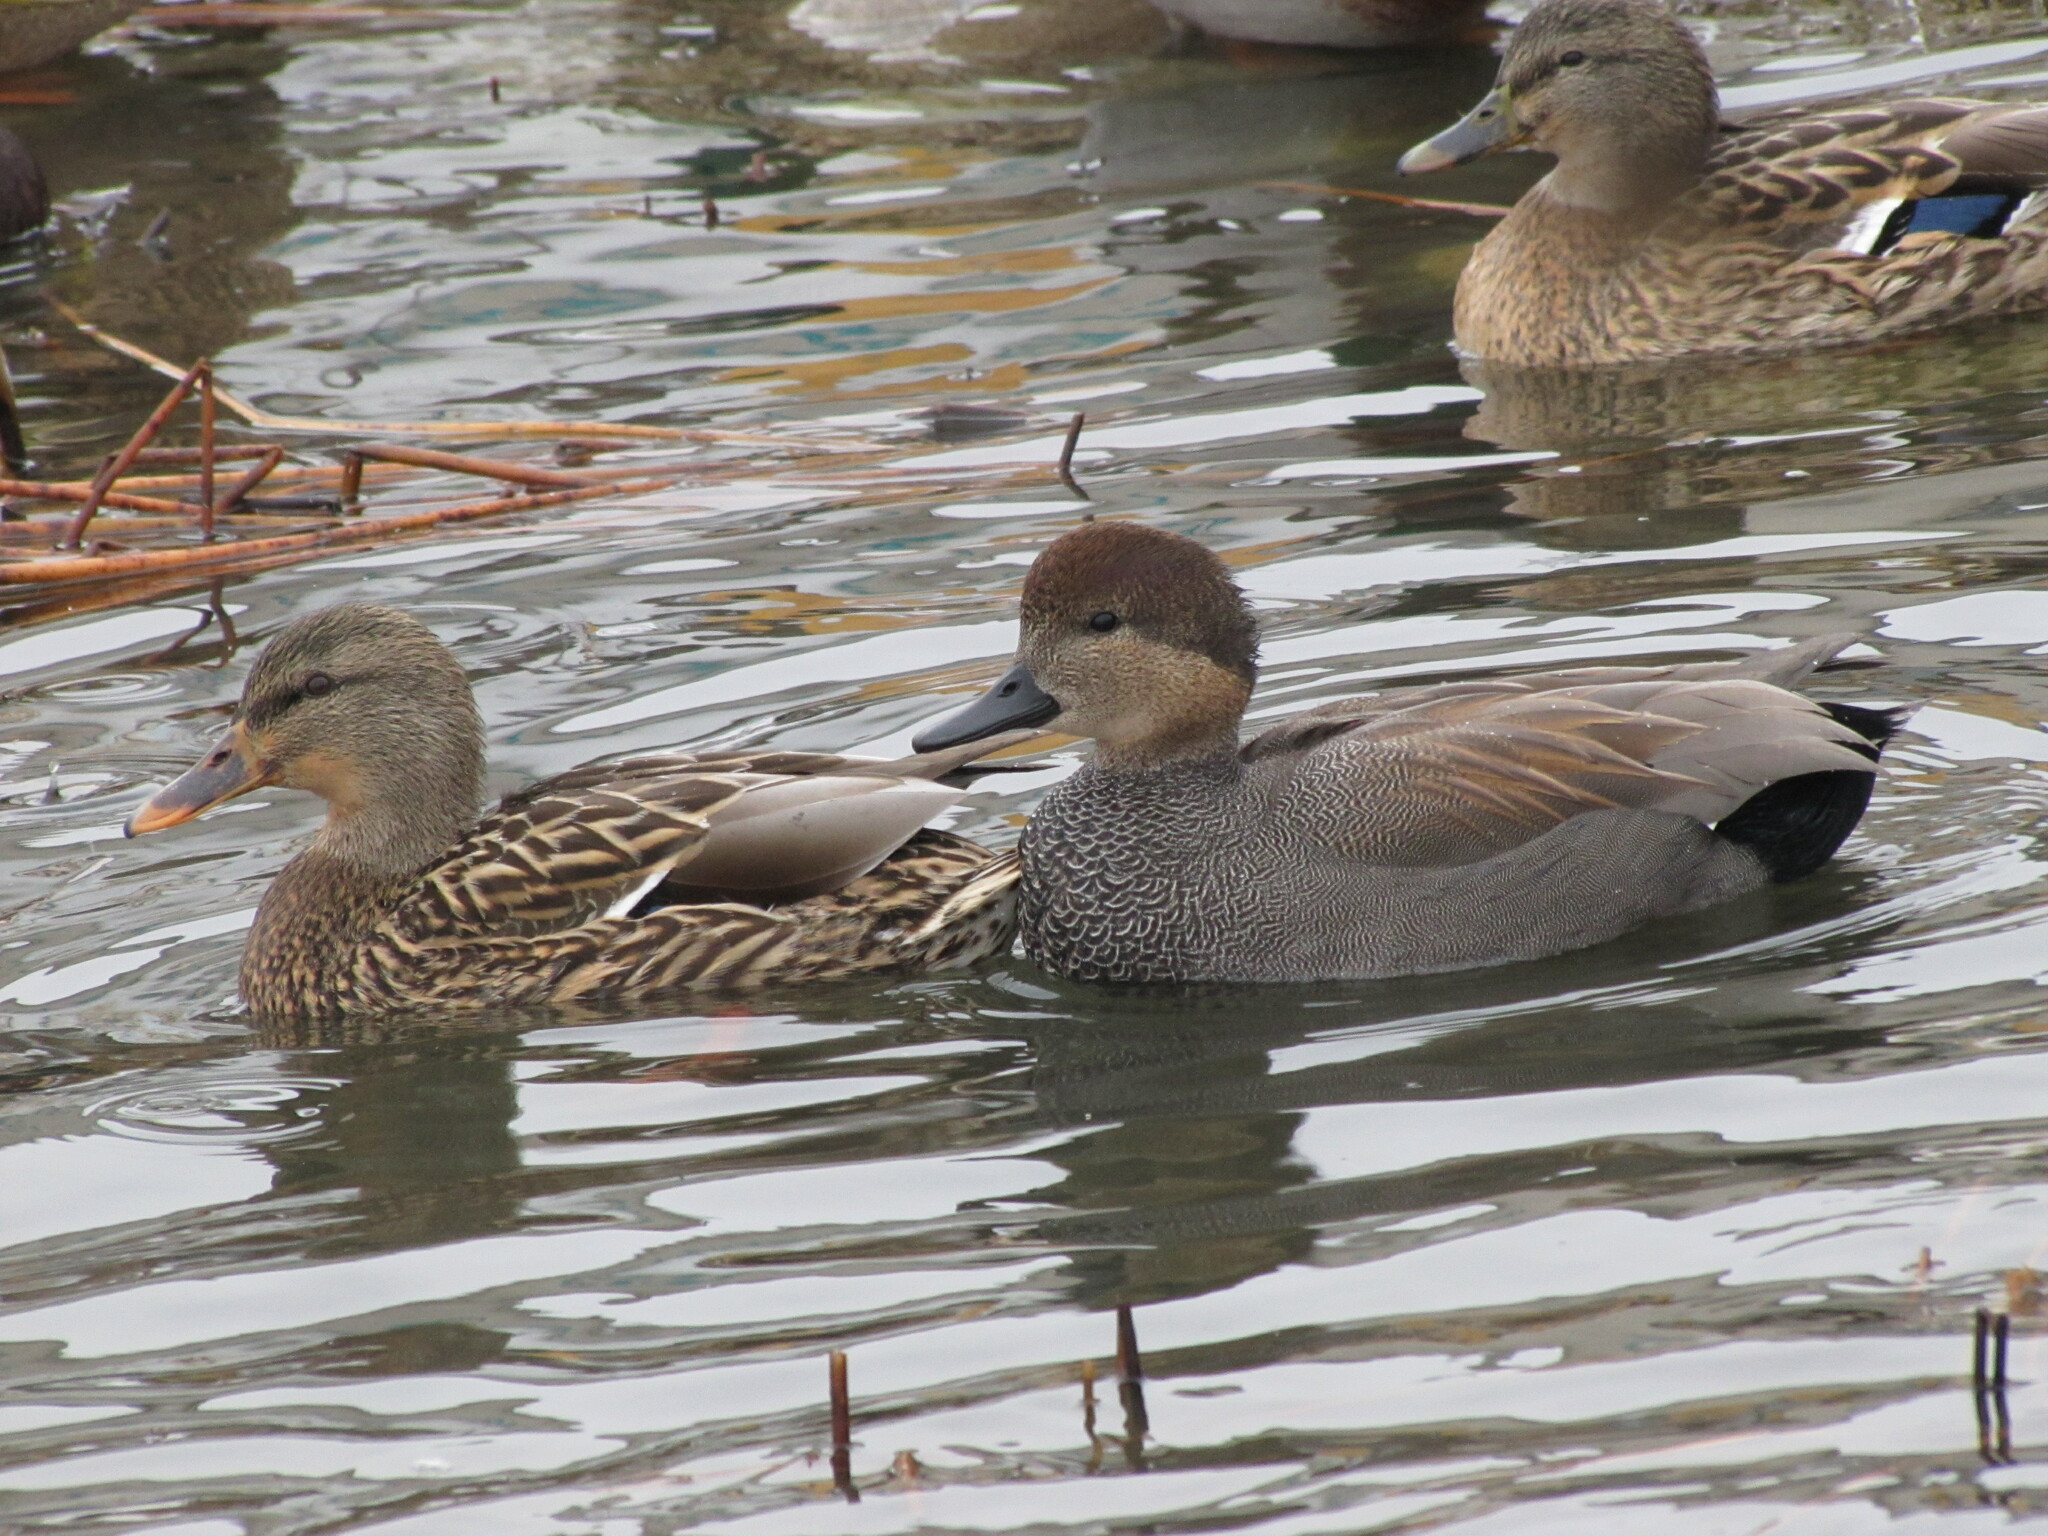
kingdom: Animalia
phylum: Chordata
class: Aves
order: Anseriformes
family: Anatidae
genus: Mareca
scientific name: Mareca strepera
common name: Gadwall
